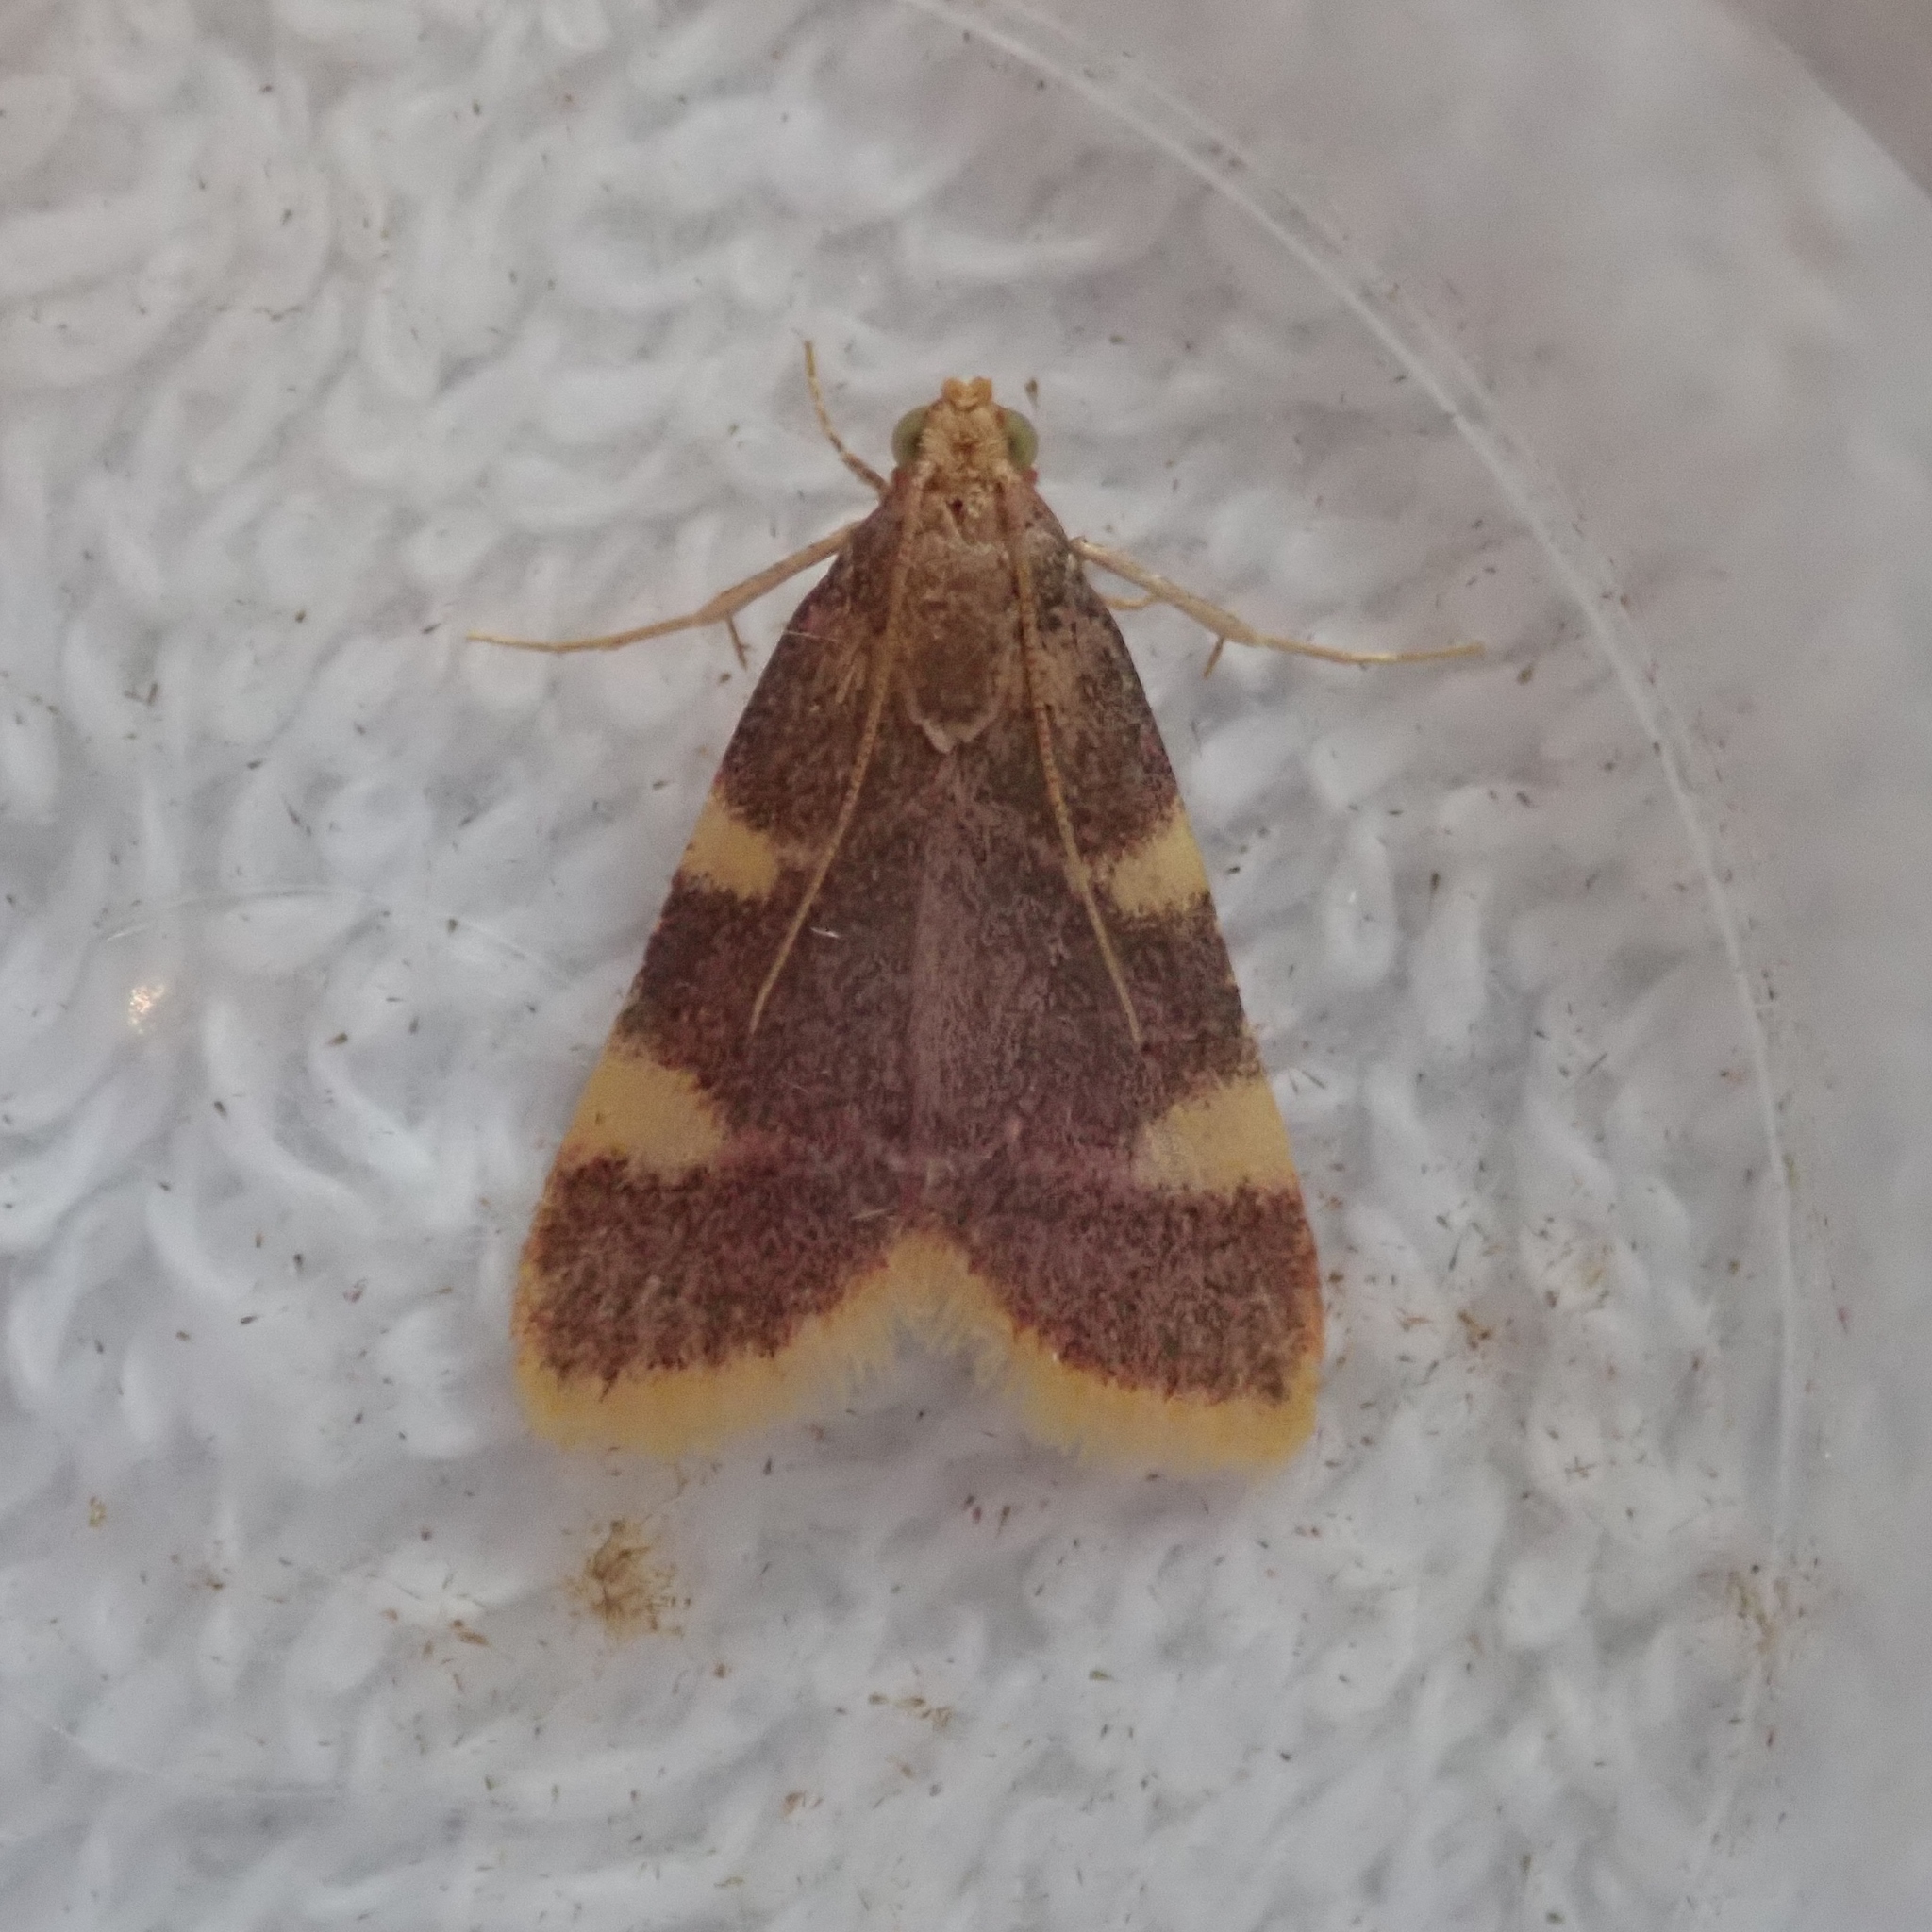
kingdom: Animalia
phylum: Arthropoda
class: Insecta
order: Lepidoptera
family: Pyralidae
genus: Hypsopygia
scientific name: Hypsopygia costalis
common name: Gold triangle
